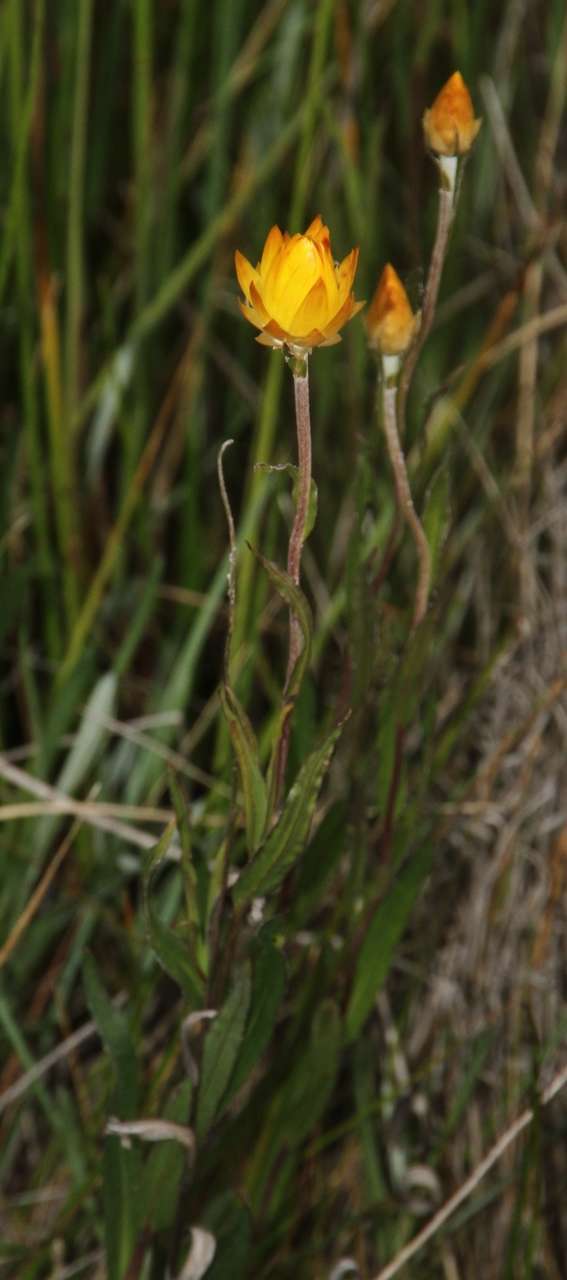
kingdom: Plantae
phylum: Tracheophyta
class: Magnoliopsida
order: Asterales
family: Asteraceae
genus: Xerochrysum
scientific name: Xerochrysum palustre
